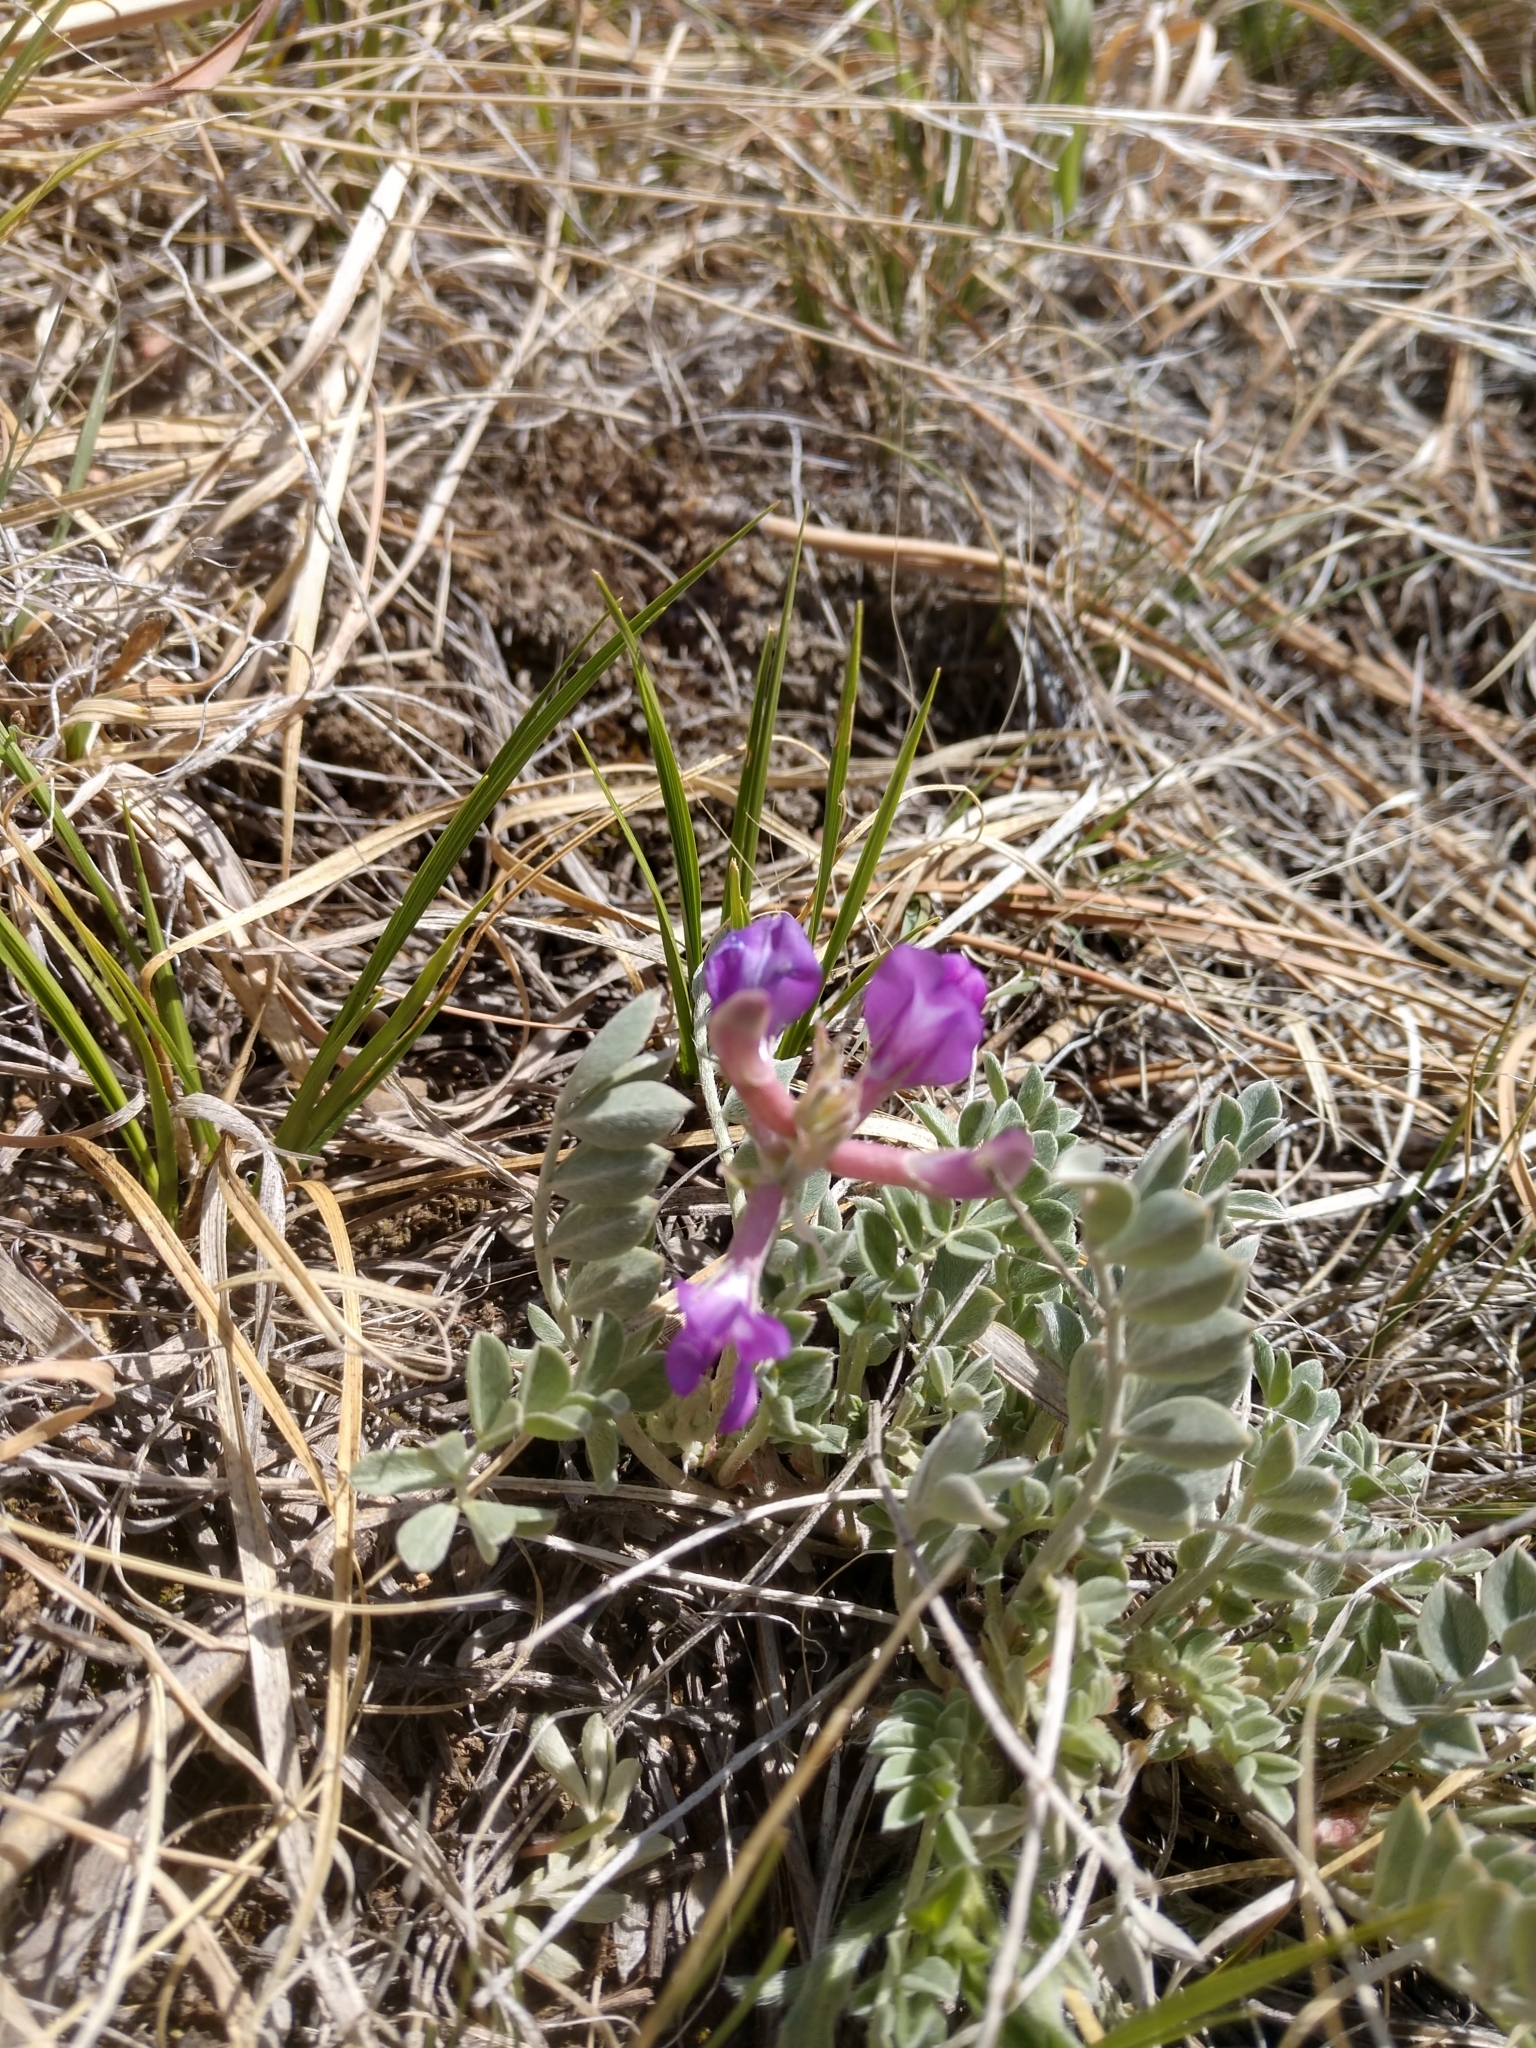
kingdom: Plantae
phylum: Tracheophyta
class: Magnoliopsida
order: Fabales
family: Fabaceae
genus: Astragalus
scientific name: Astragalus missouriensis
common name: Missouri milk-vetch
